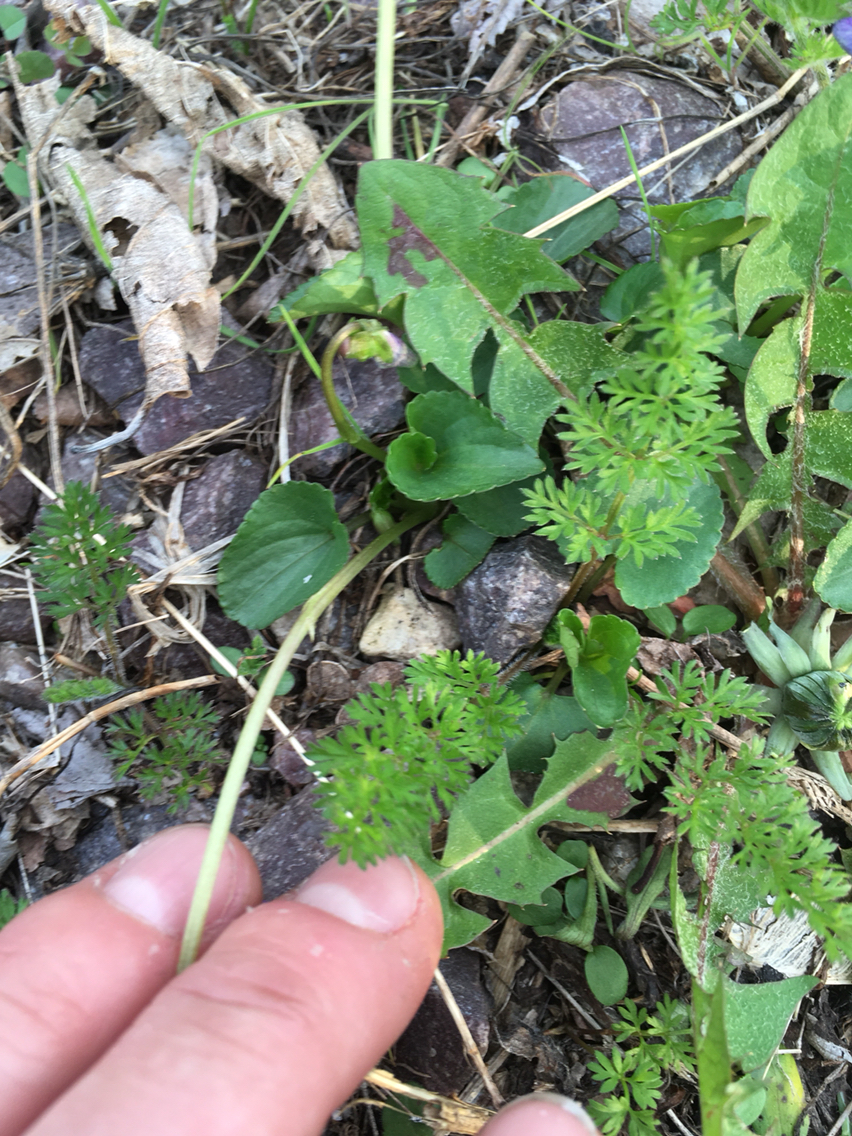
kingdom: Plantae
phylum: Tracheophyta
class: Magnoliopsida
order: Malpighiales
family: Violaceae
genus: Viola
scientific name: Viola sororia
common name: Dooryard violet
